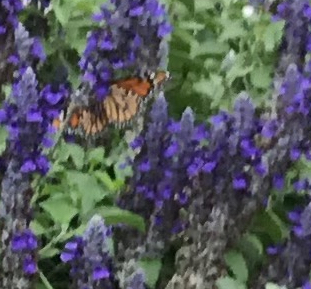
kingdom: Animalia
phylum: Arthropoda
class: Insecta
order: Lepidoptera
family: Nymphalidae
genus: Danaus
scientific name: Danaus plexippus
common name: Monarch
